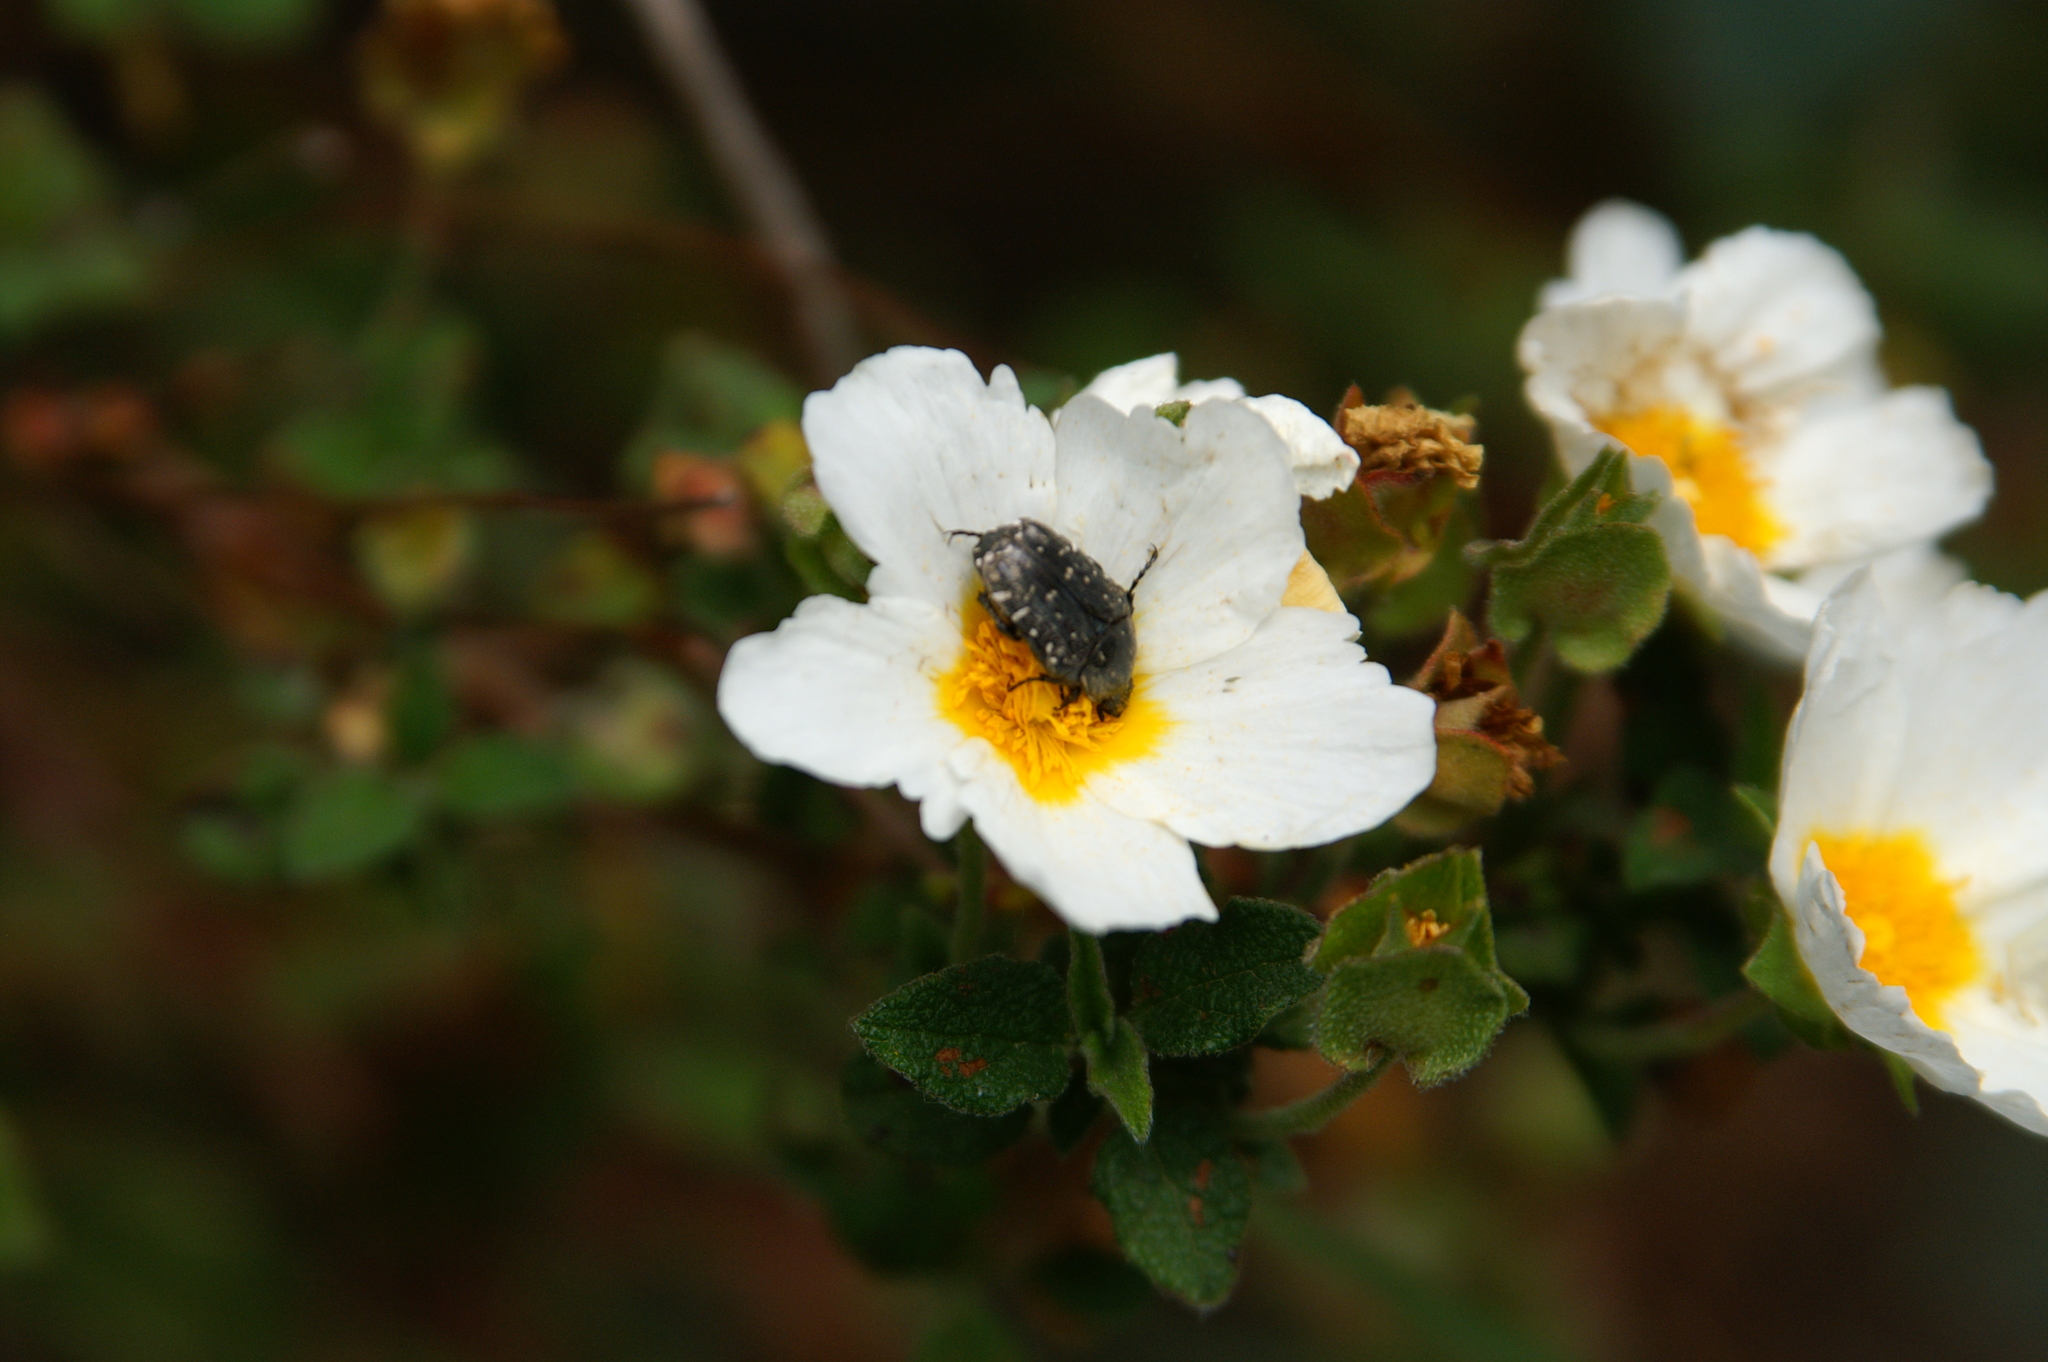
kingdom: Animalia
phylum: Arthropoda
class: Insecta
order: Coleoptera
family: Scarabaeidae
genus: Oxythyrea
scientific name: Oxythyrea funesta
